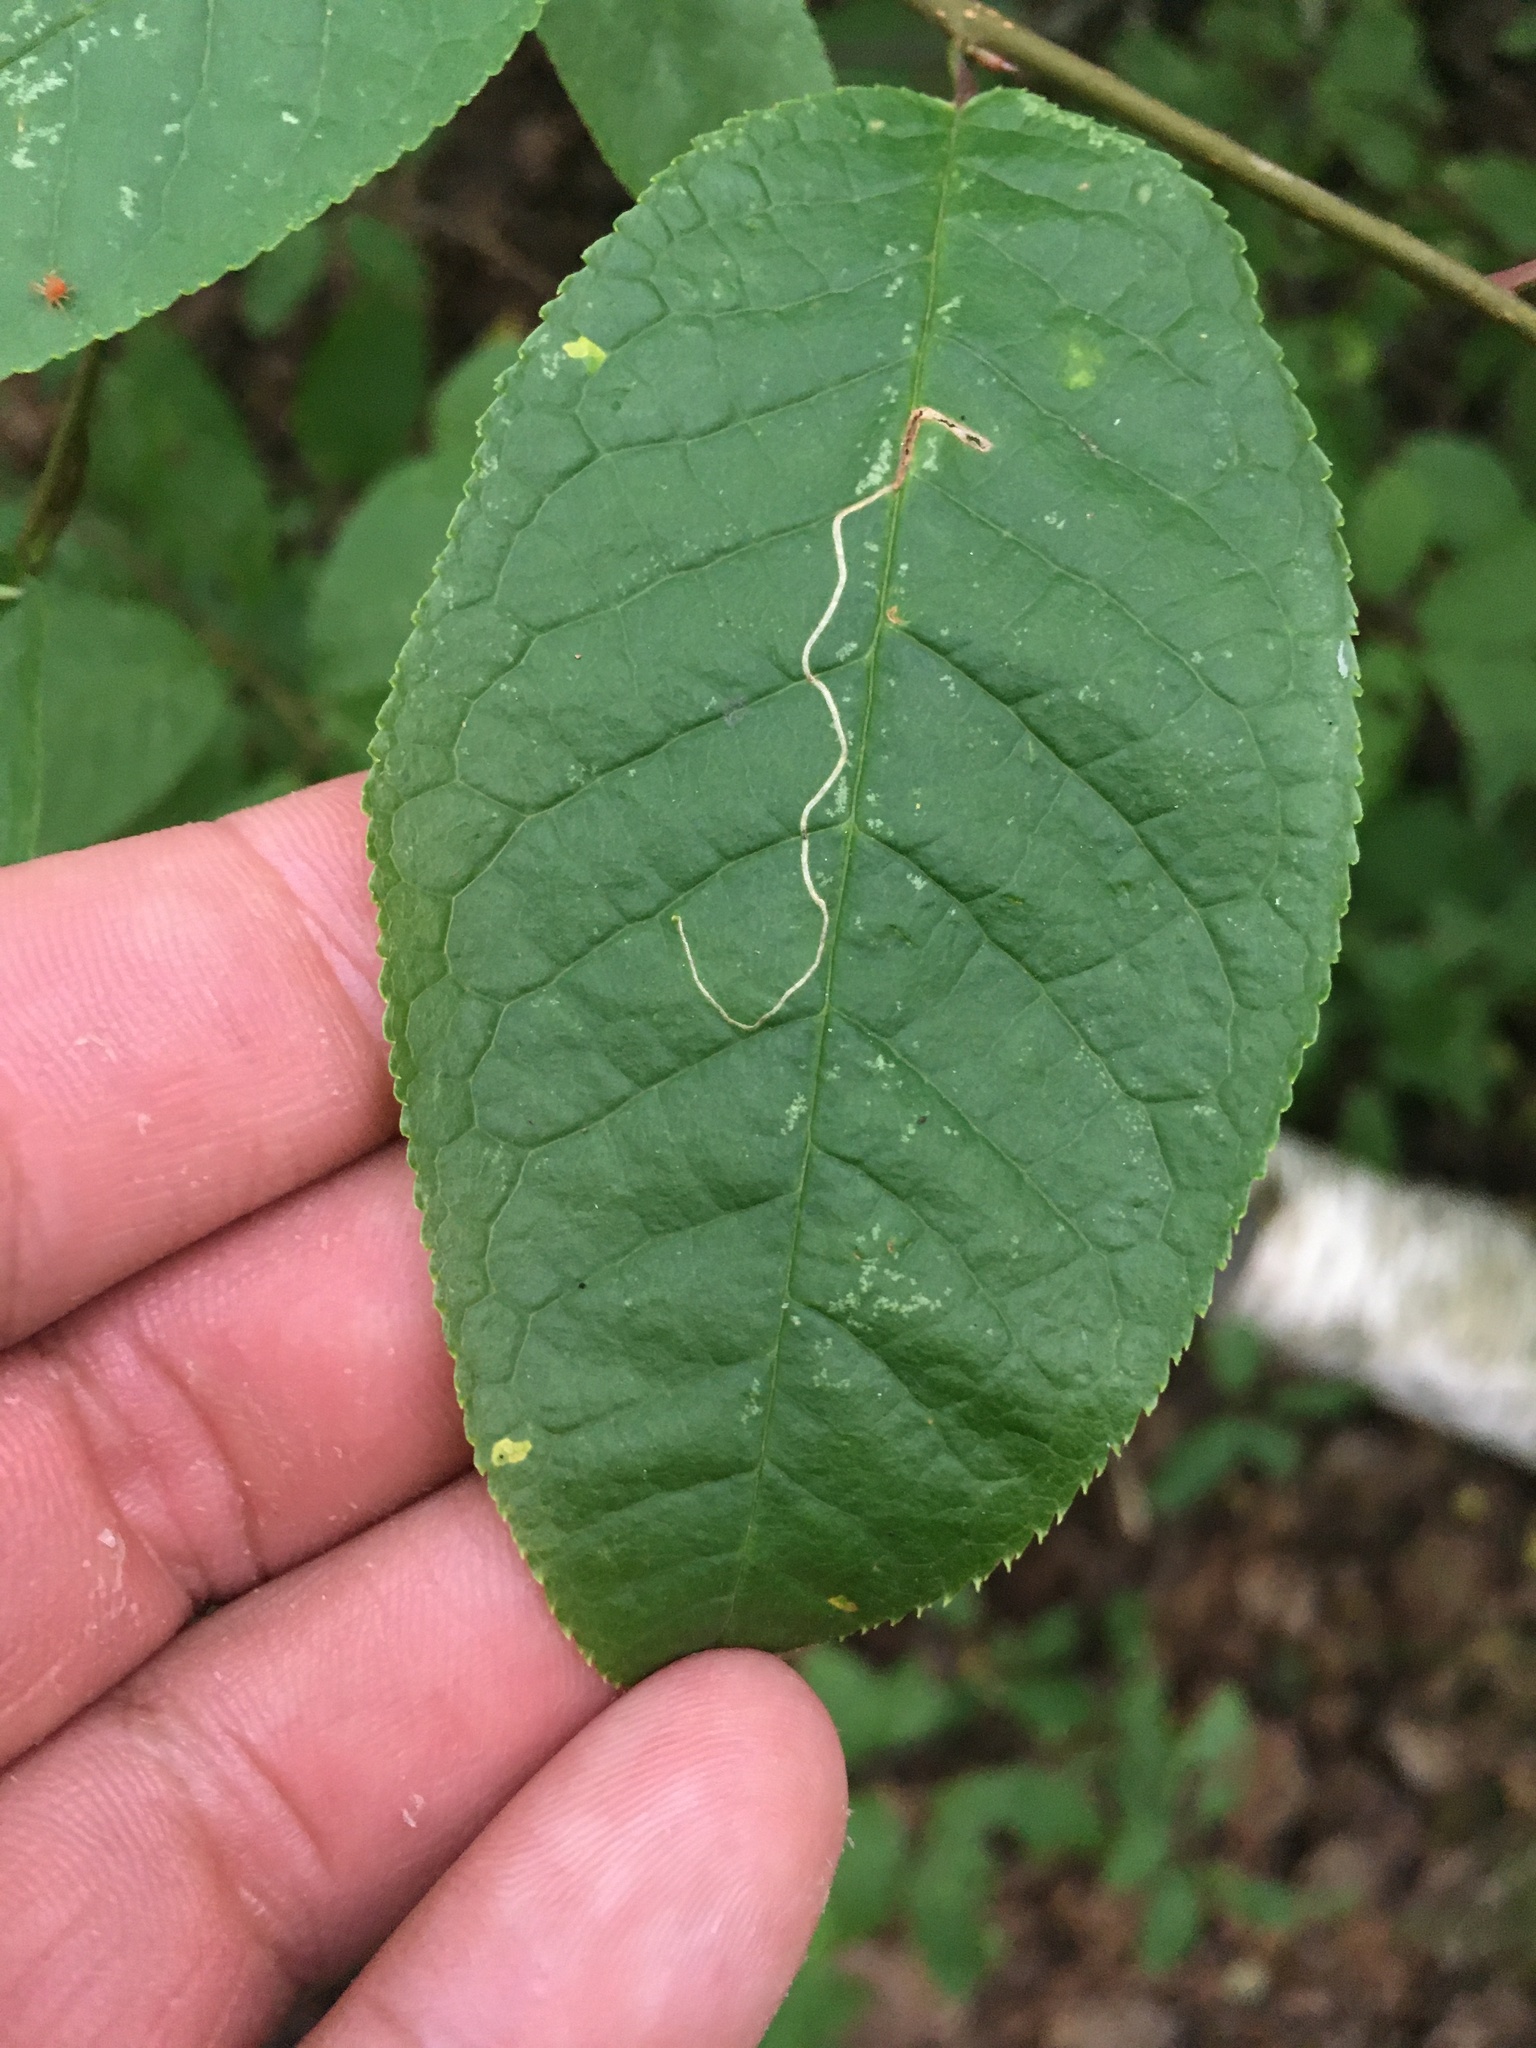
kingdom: Plantae
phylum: Tracheophyta
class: Magnoliopsida
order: Rosales
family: Rosaceae
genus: Prunus
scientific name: Prunus padus
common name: Bird cherry
